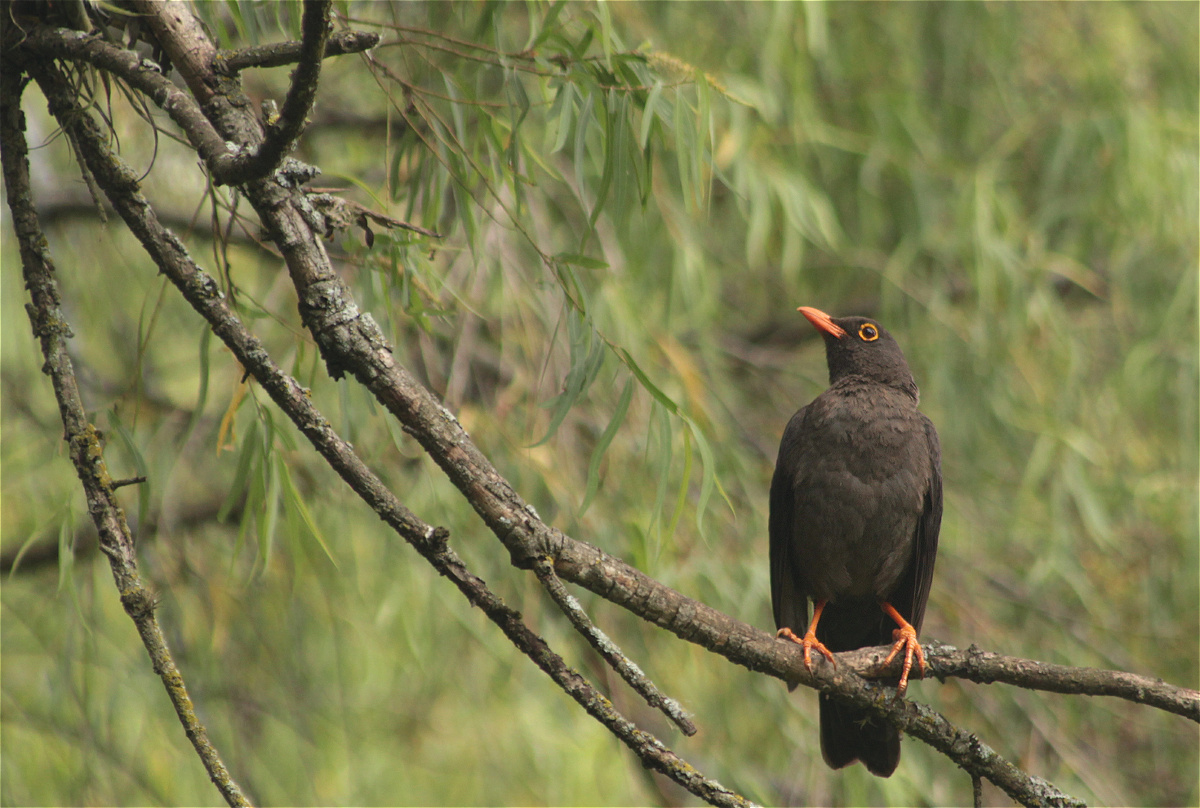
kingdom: Animalia
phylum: Chordata
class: Aves
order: Passeriformes
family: Turdidae
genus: Turdus
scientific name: Turdus fuscater
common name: Great thrush
